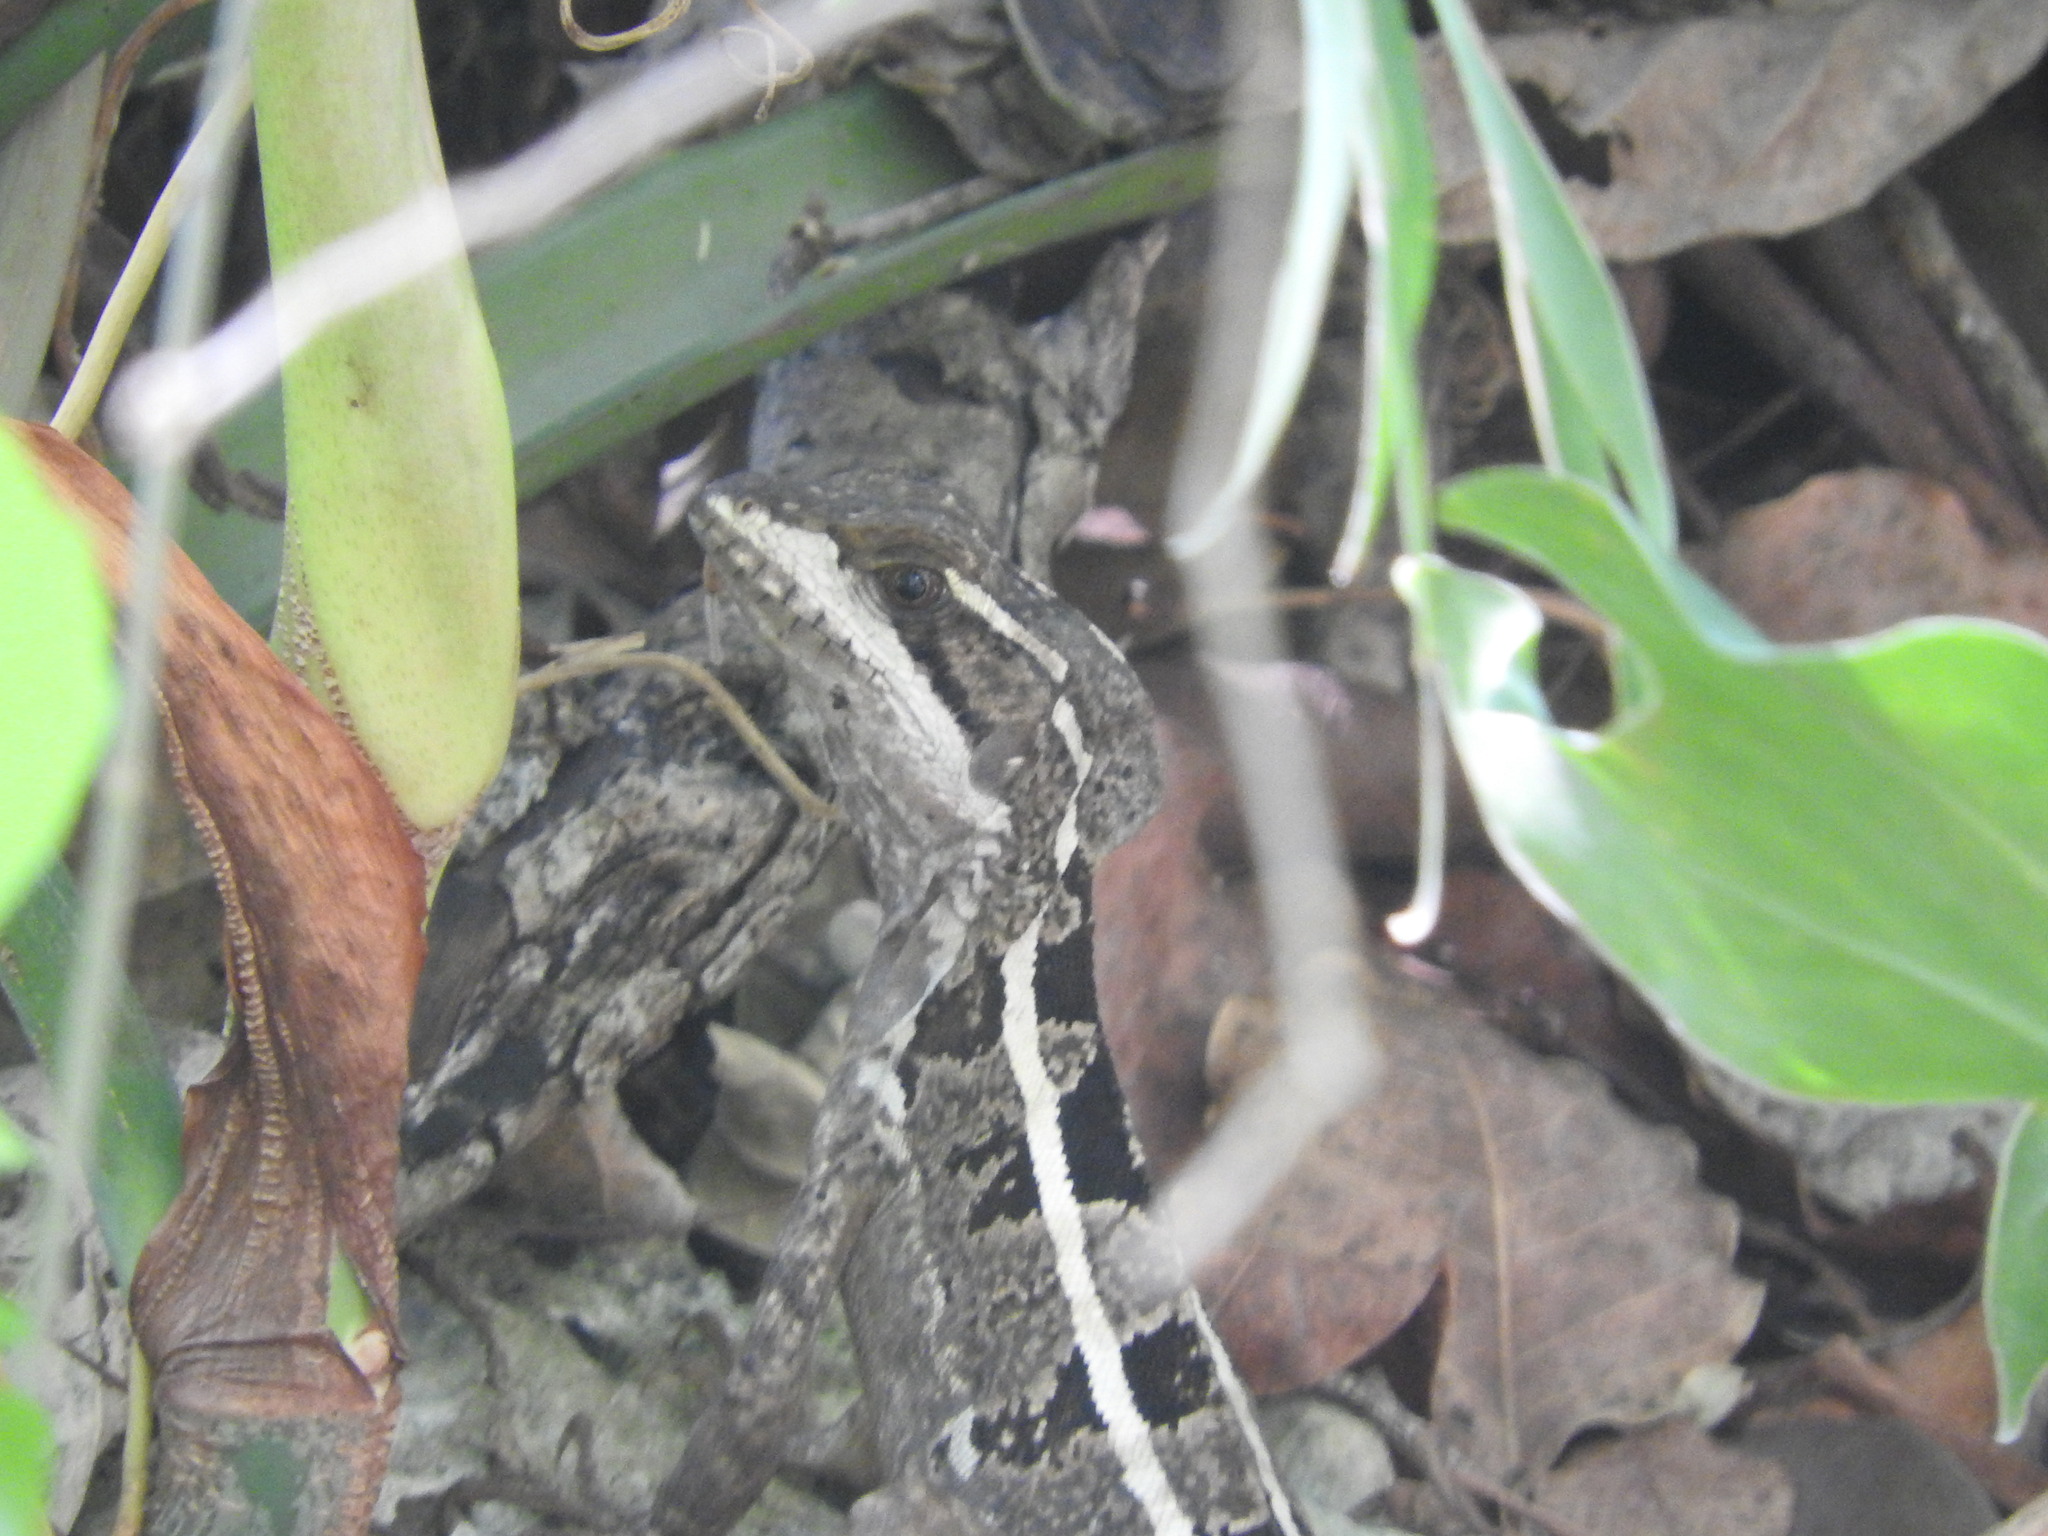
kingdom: Animalia
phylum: Chordata
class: Squamata
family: Corytophanidae
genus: Basiliscus
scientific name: Basiliscus vittatus
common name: Brown basilisk
